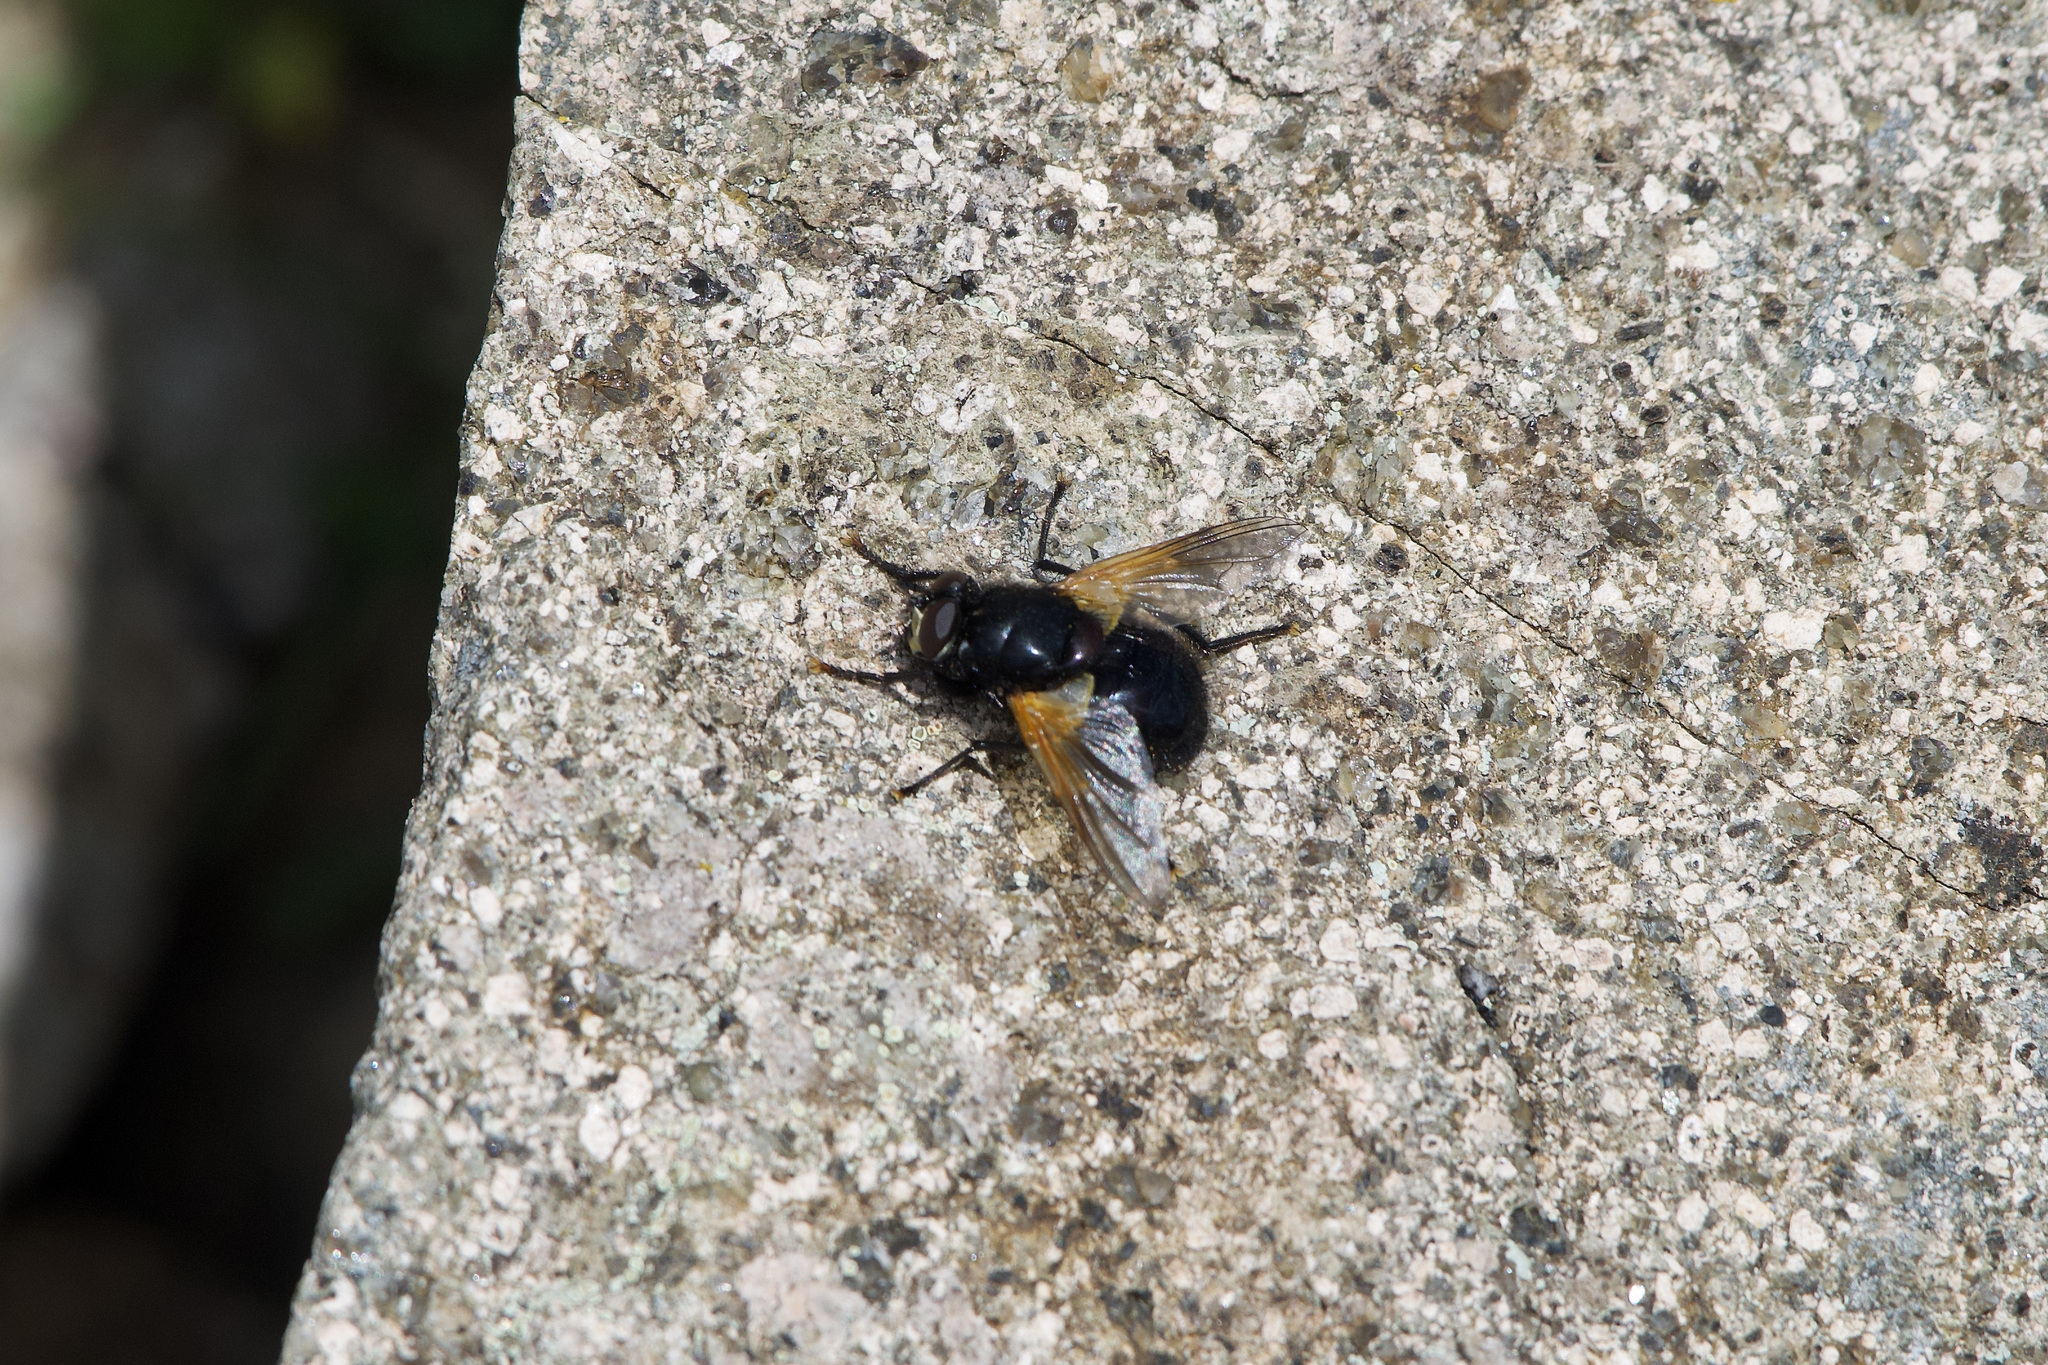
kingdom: Animalia
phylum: Arthropoda
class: Insecta
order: Diptera
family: Muscidae
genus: Mesembrina
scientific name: Mesembrina meridiana
